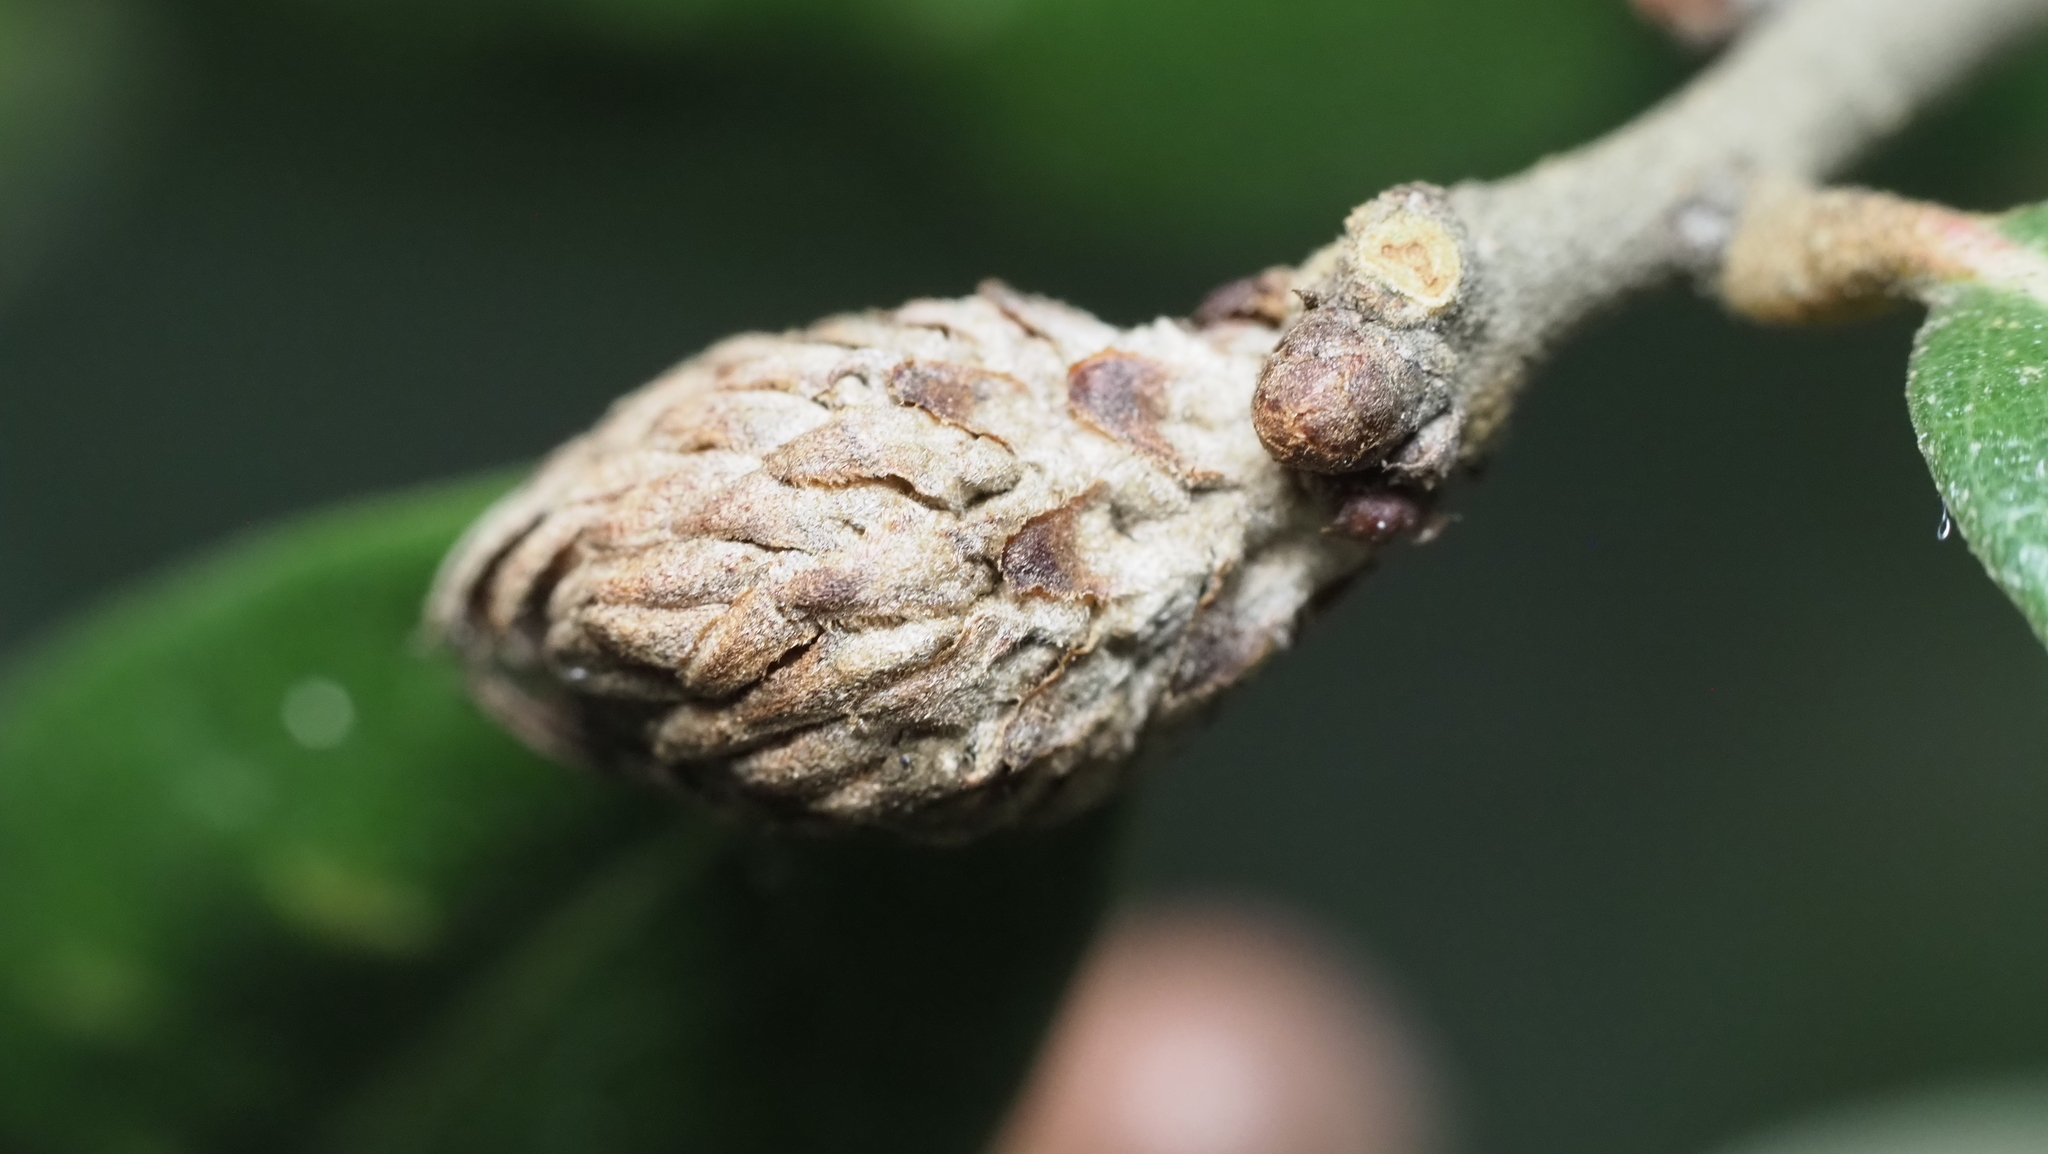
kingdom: Animalia
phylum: Arthropoda
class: Insecta
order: Hymenoptera
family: Cynipidae
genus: Andricus
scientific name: Andricus quercusfoliatus
